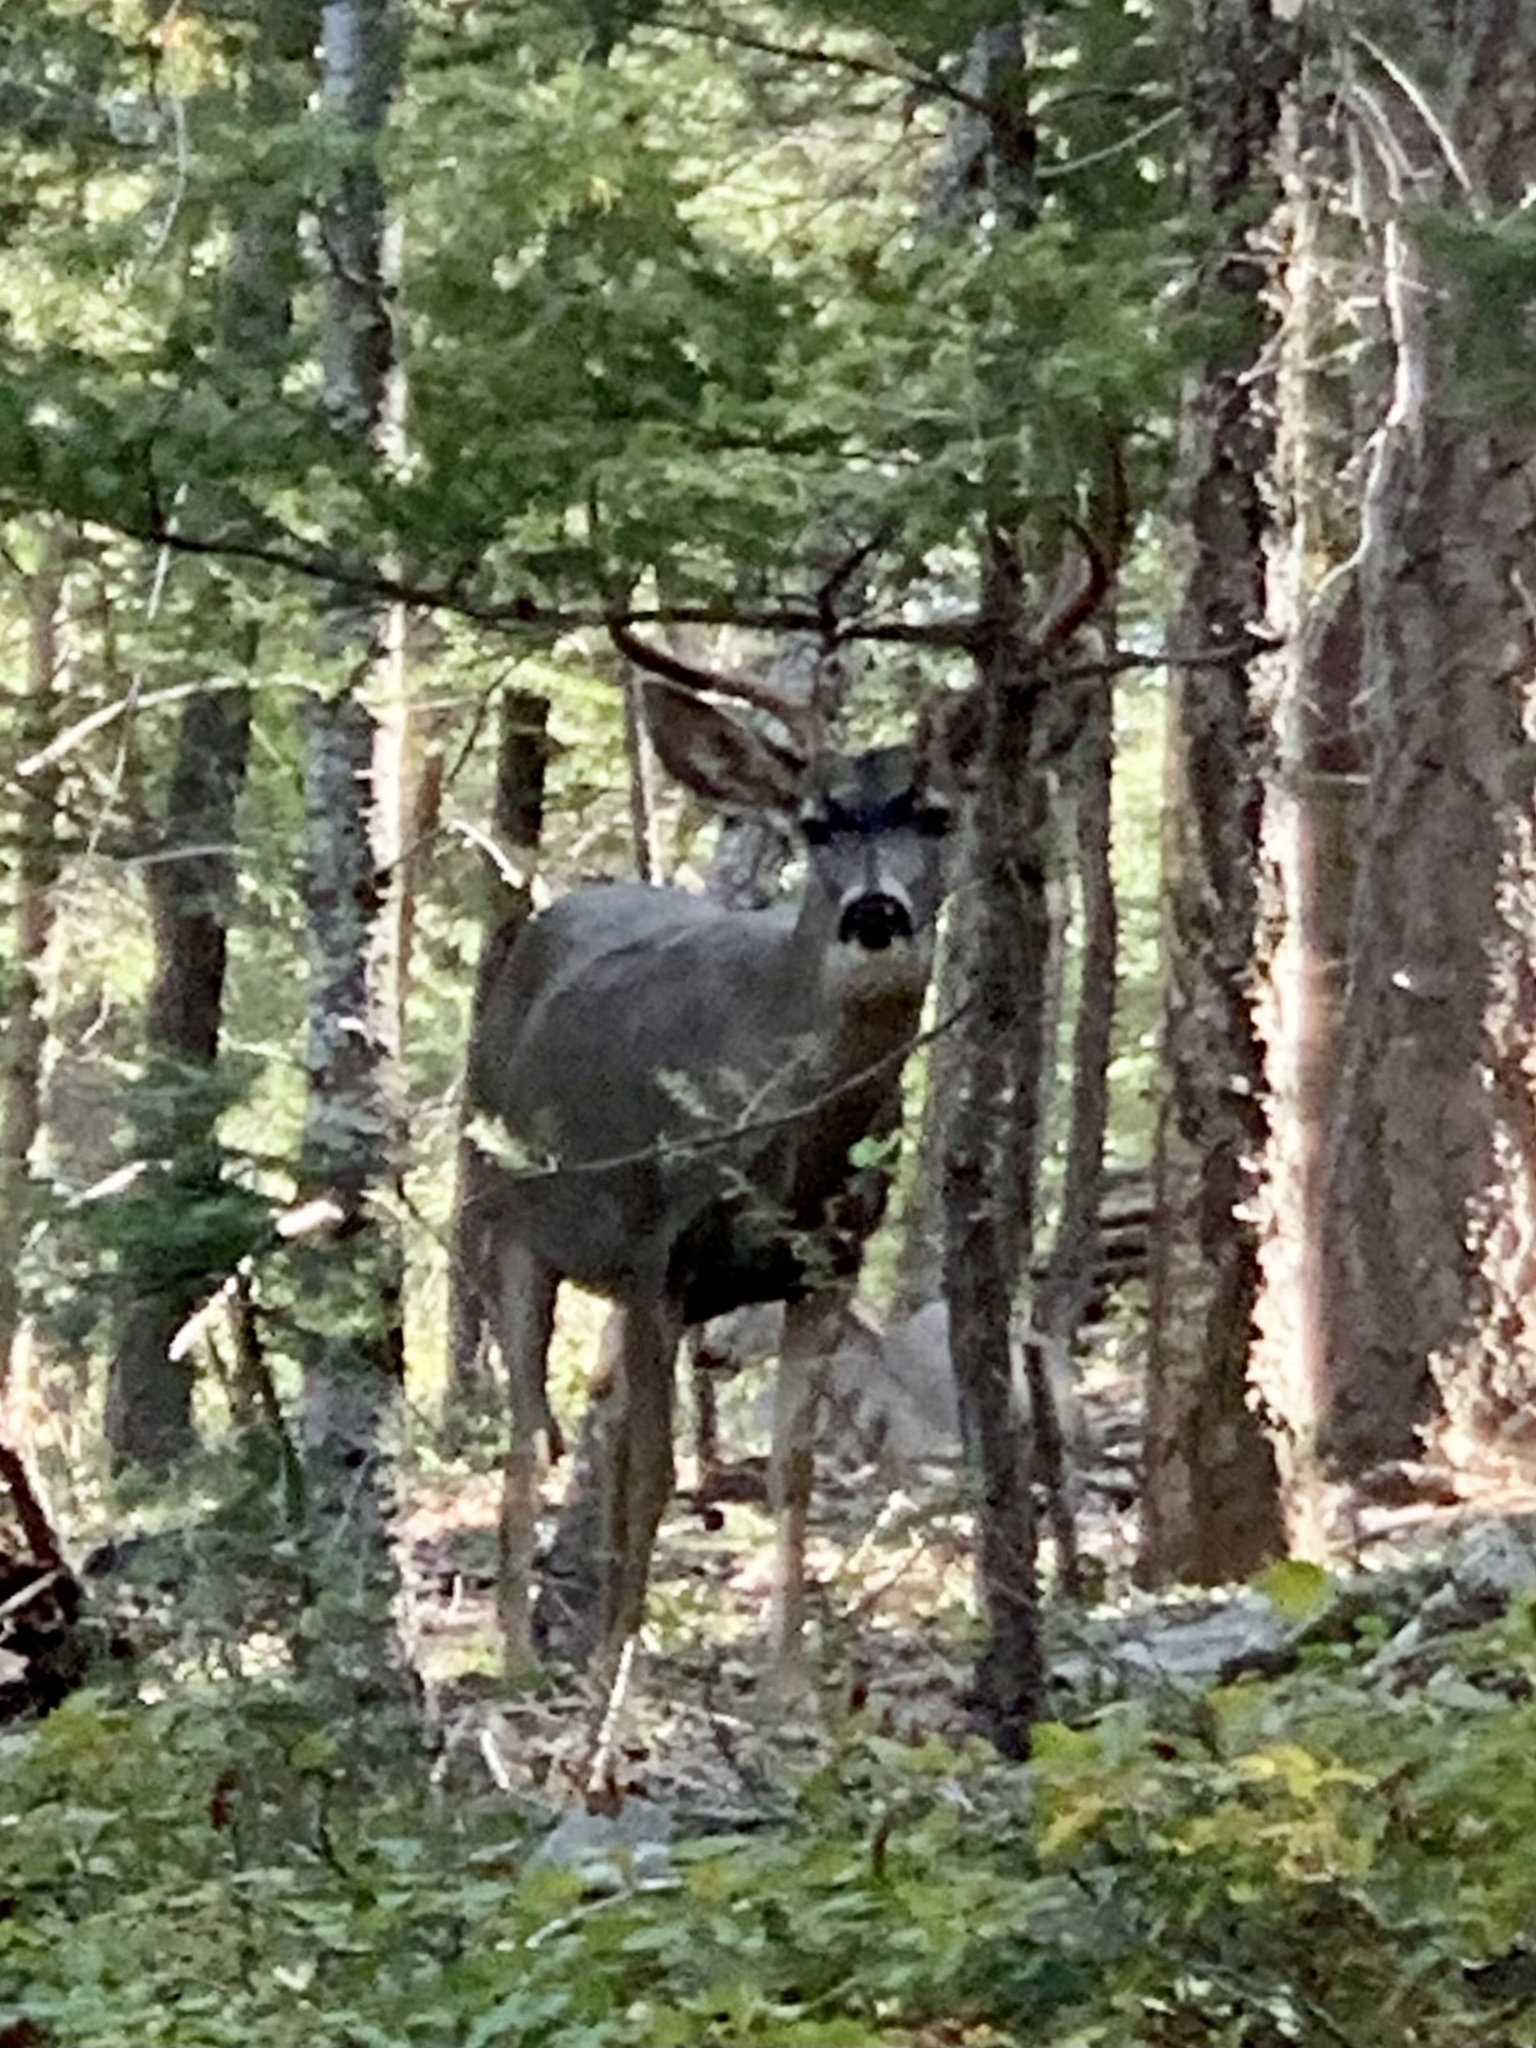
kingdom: Animalia
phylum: Chordata
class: Mammalia
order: Artiodactyla
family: Cervidae
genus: Odocoileus
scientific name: Odocoileus hemionus
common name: Mule deer
